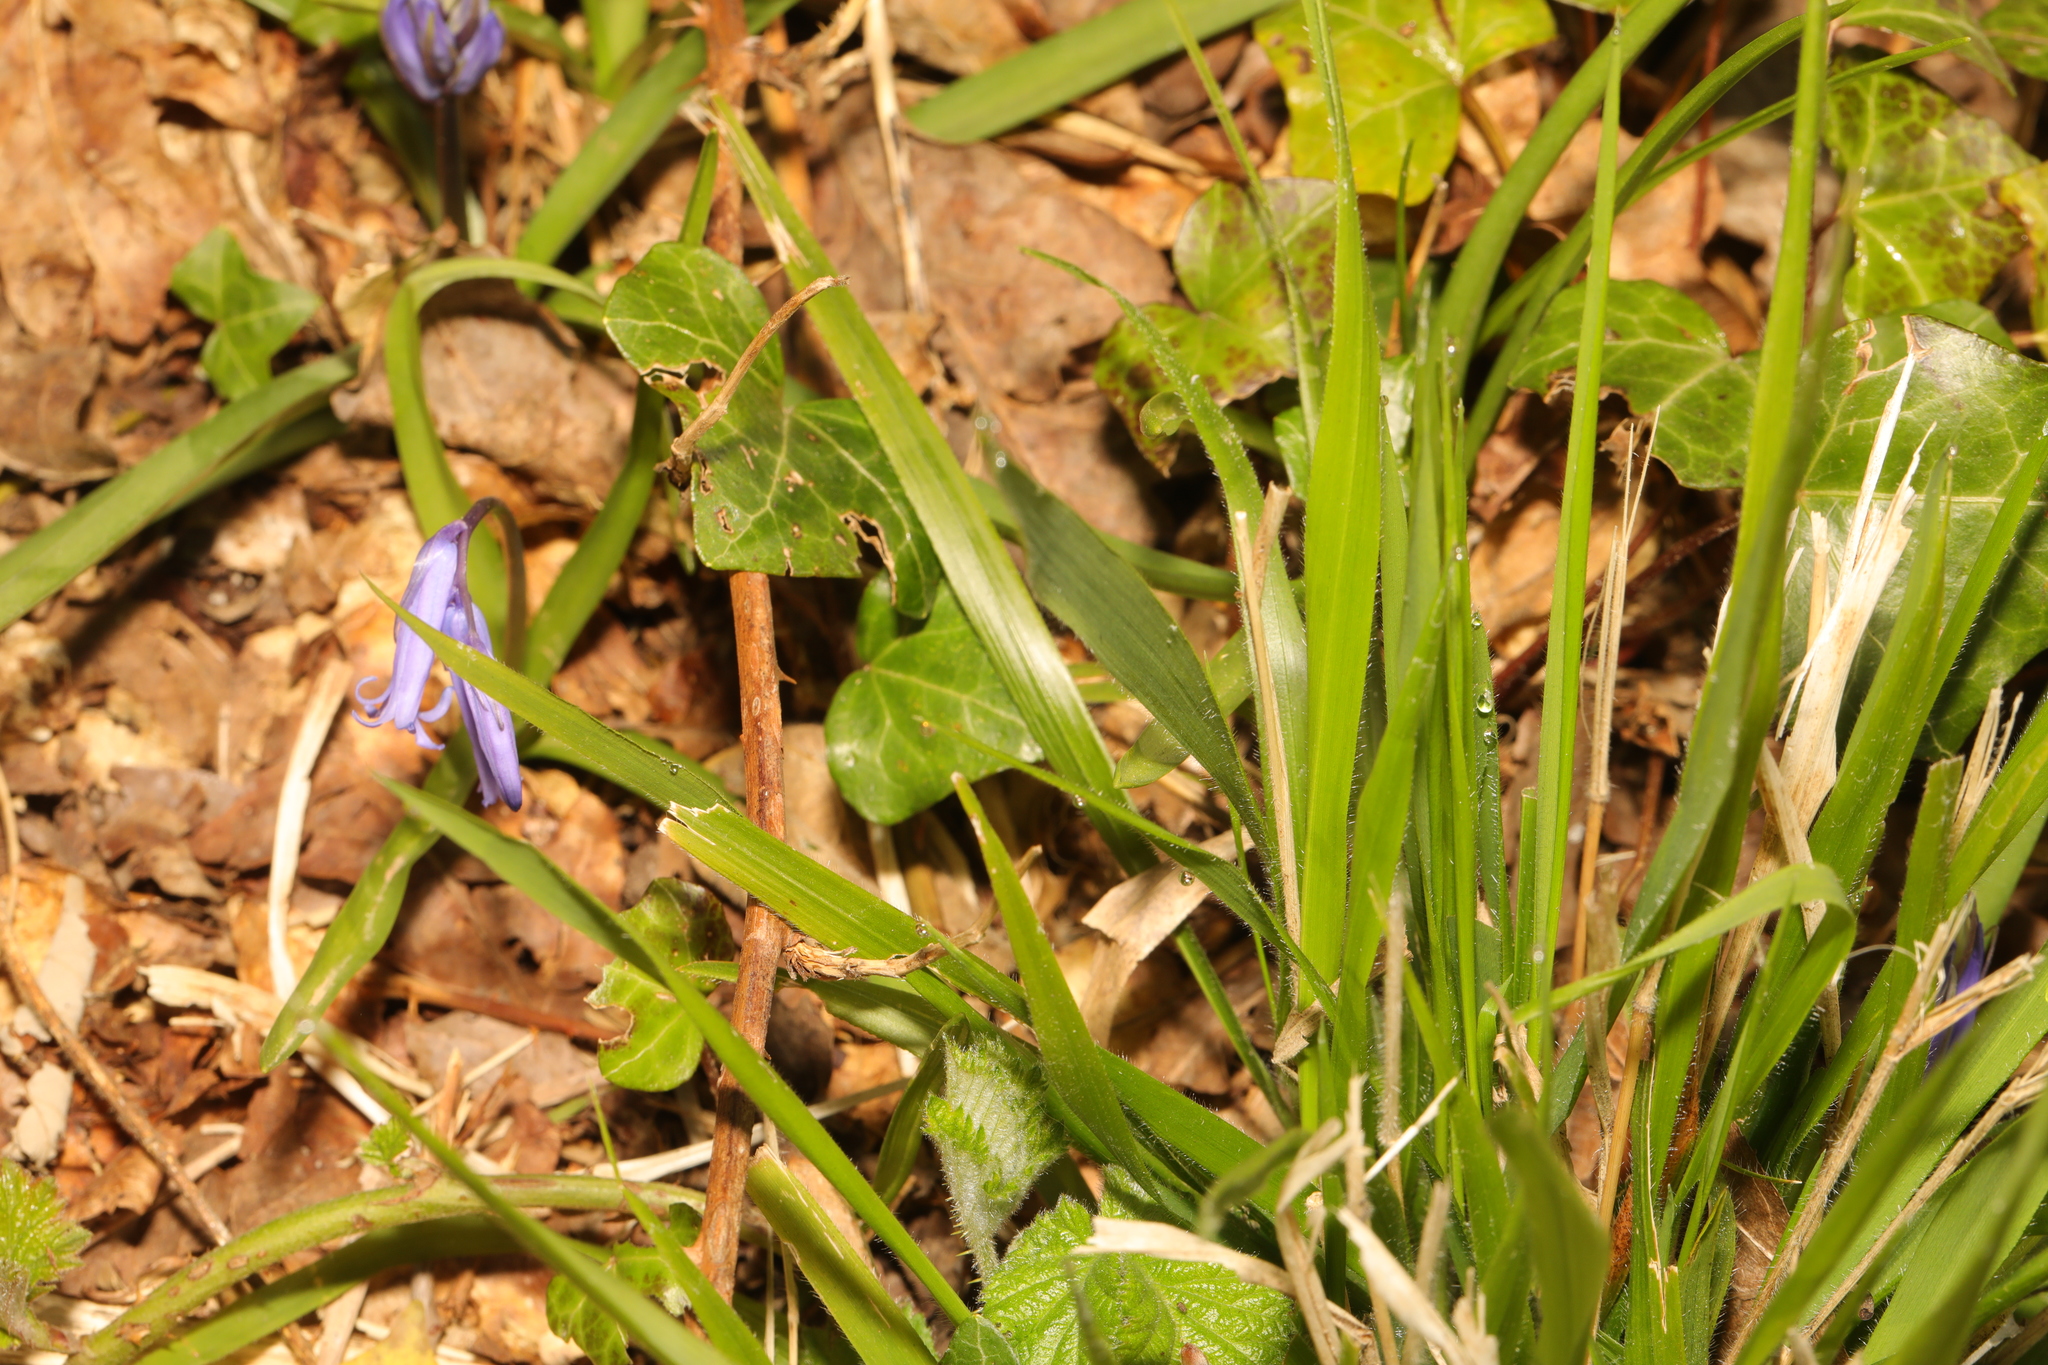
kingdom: Plantae
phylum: Tracheophyta
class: Liliopsida
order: Asparagales
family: Asparagaceae
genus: Hyacinthoides
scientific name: Hyacinthoides non-scripta
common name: Bluebell
